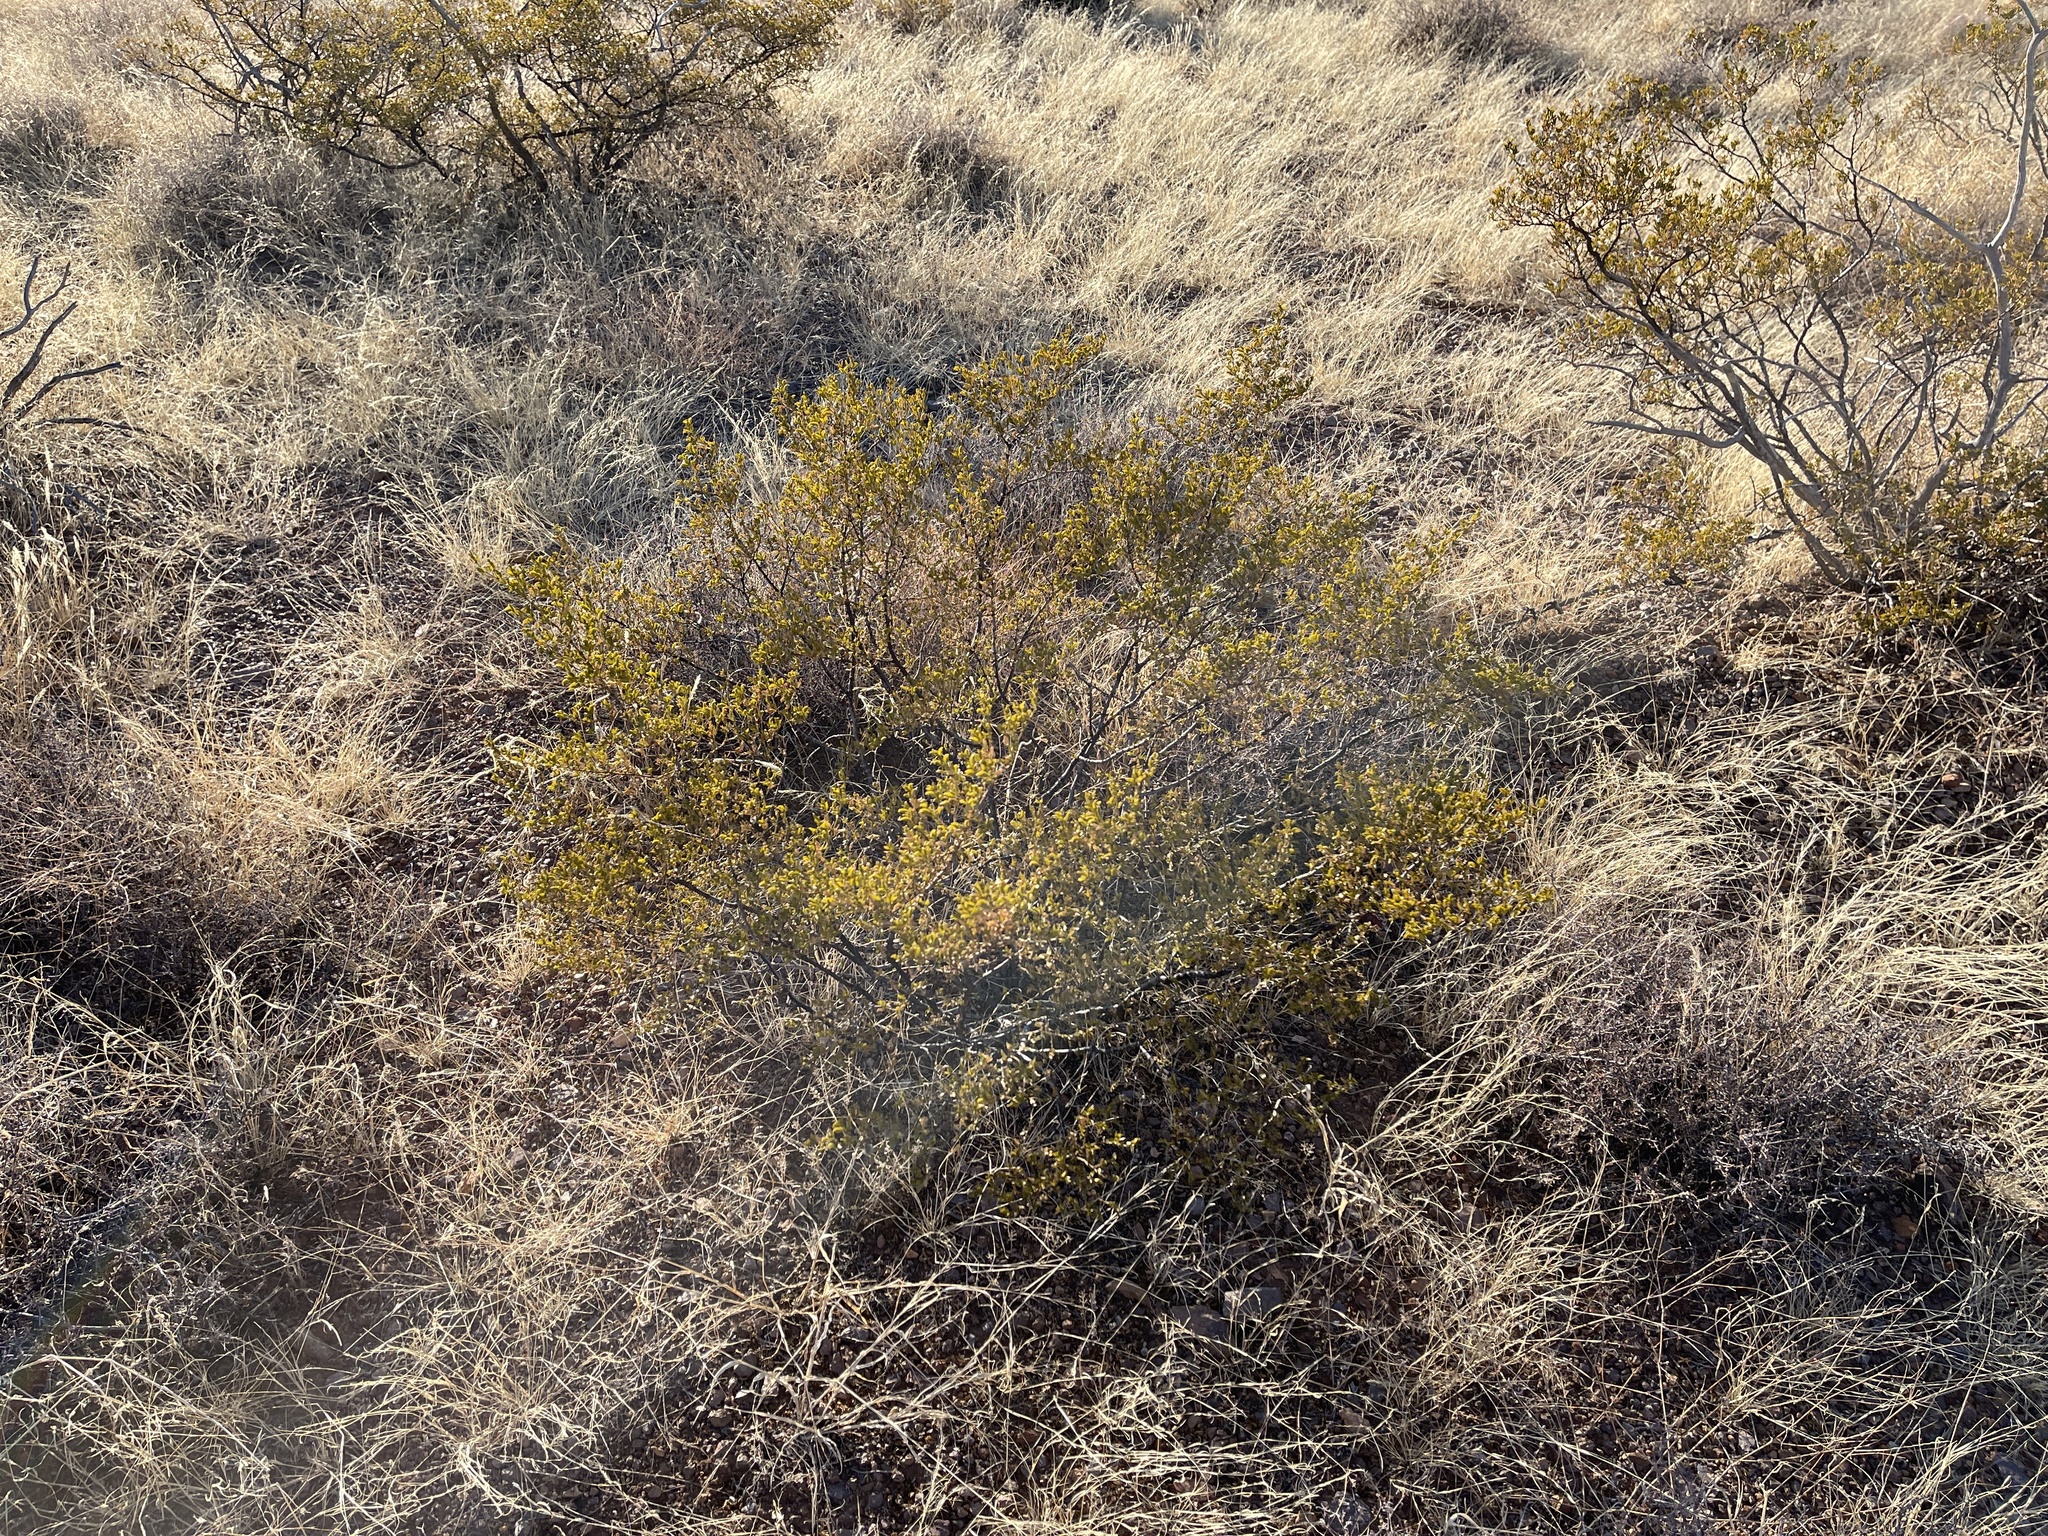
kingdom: Plantae
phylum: Tracheophyta
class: Magnoliopsida
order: Zygophyllales
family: Zygophyllaceae
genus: Larrea
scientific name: Larrea tridentata
